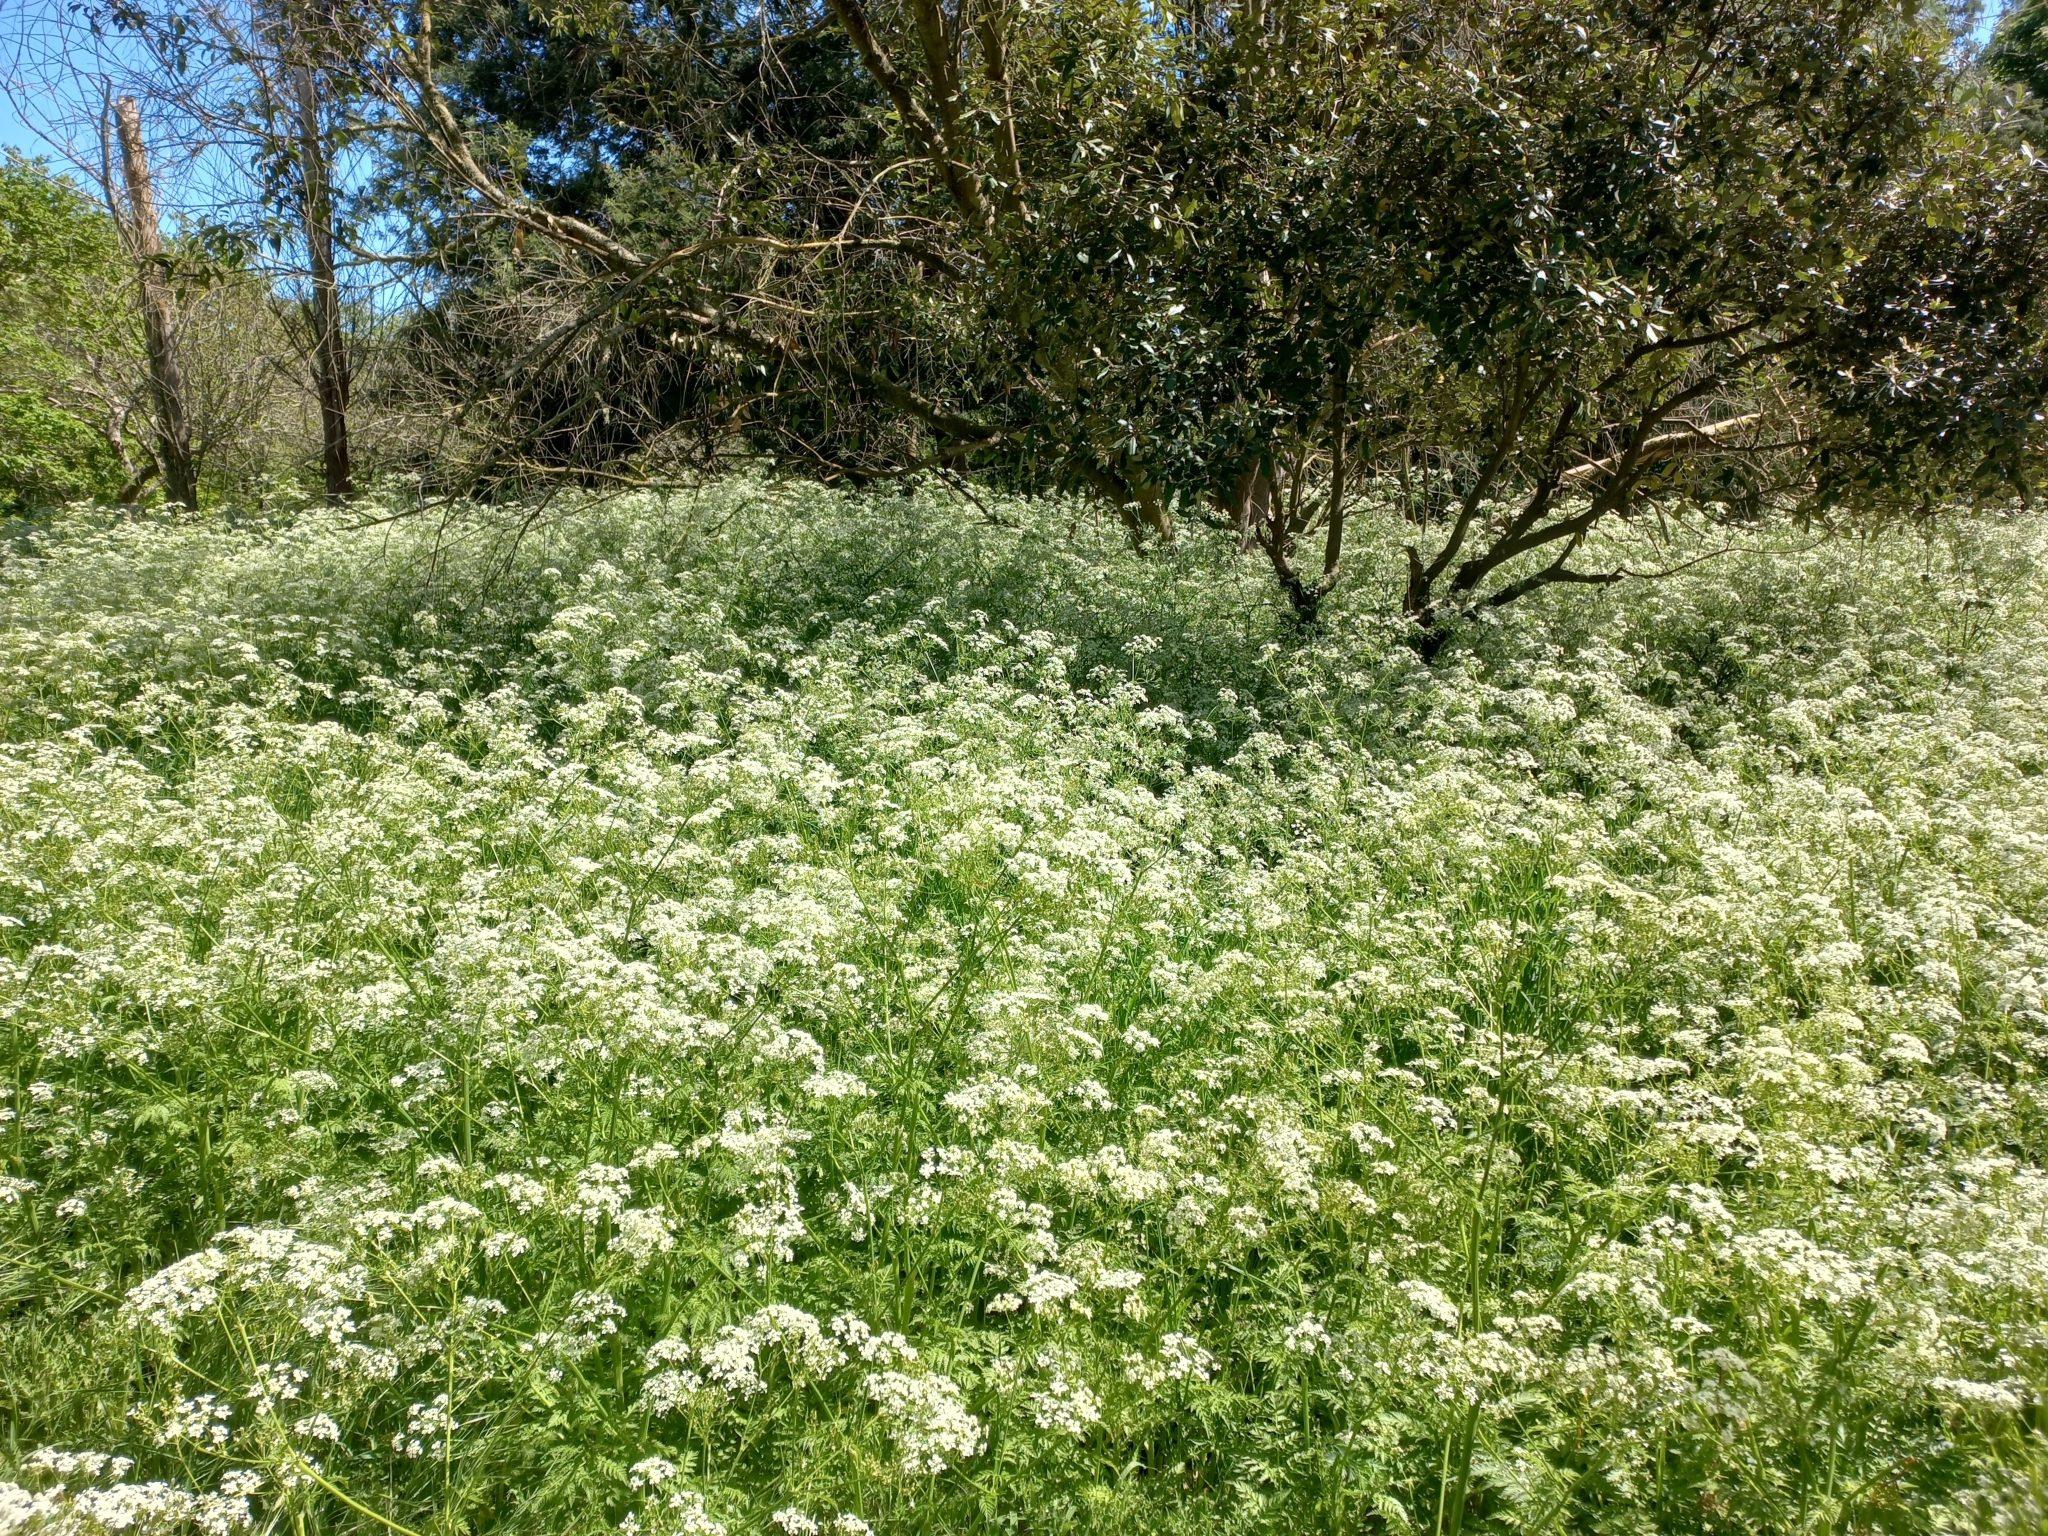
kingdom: Plantae
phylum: Tracheophyta
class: Magnoliopsida
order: Apiales
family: Apiaceae
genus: Conium
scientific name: Conium maculatum
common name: Hemlock
